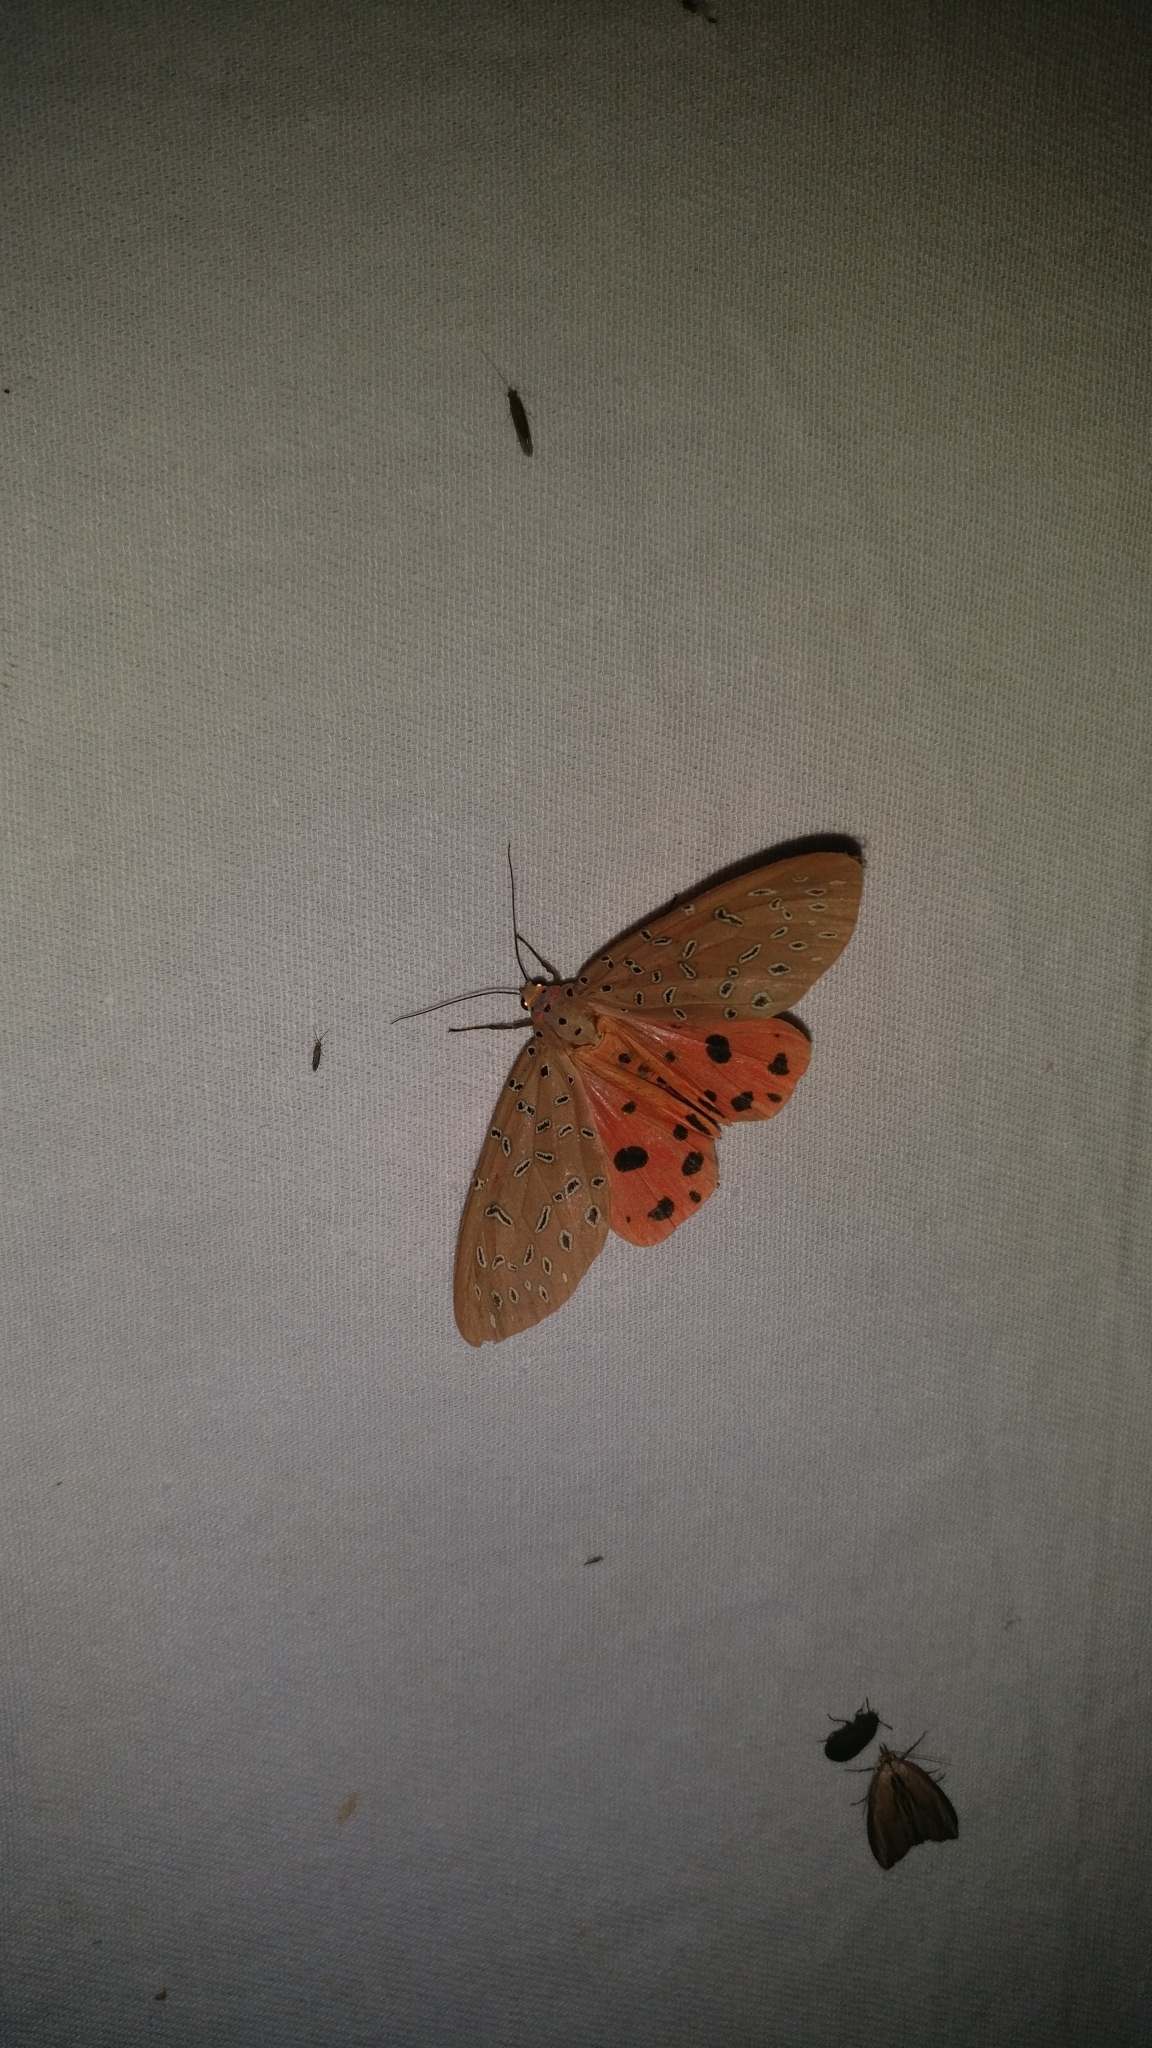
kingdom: Animalia
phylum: Arthropoda
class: Insecta
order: Lepidoptera
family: Erebidae
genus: Mangina
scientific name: Mangina argus
